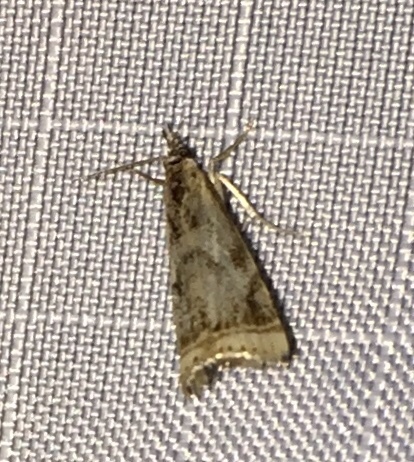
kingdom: Animalia
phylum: Arthropoda
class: Insecta
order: Lepidoptera
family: Crambidae
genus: Microcrambus
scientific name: Microcrambus elegans
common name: Elegant grass-veneer
